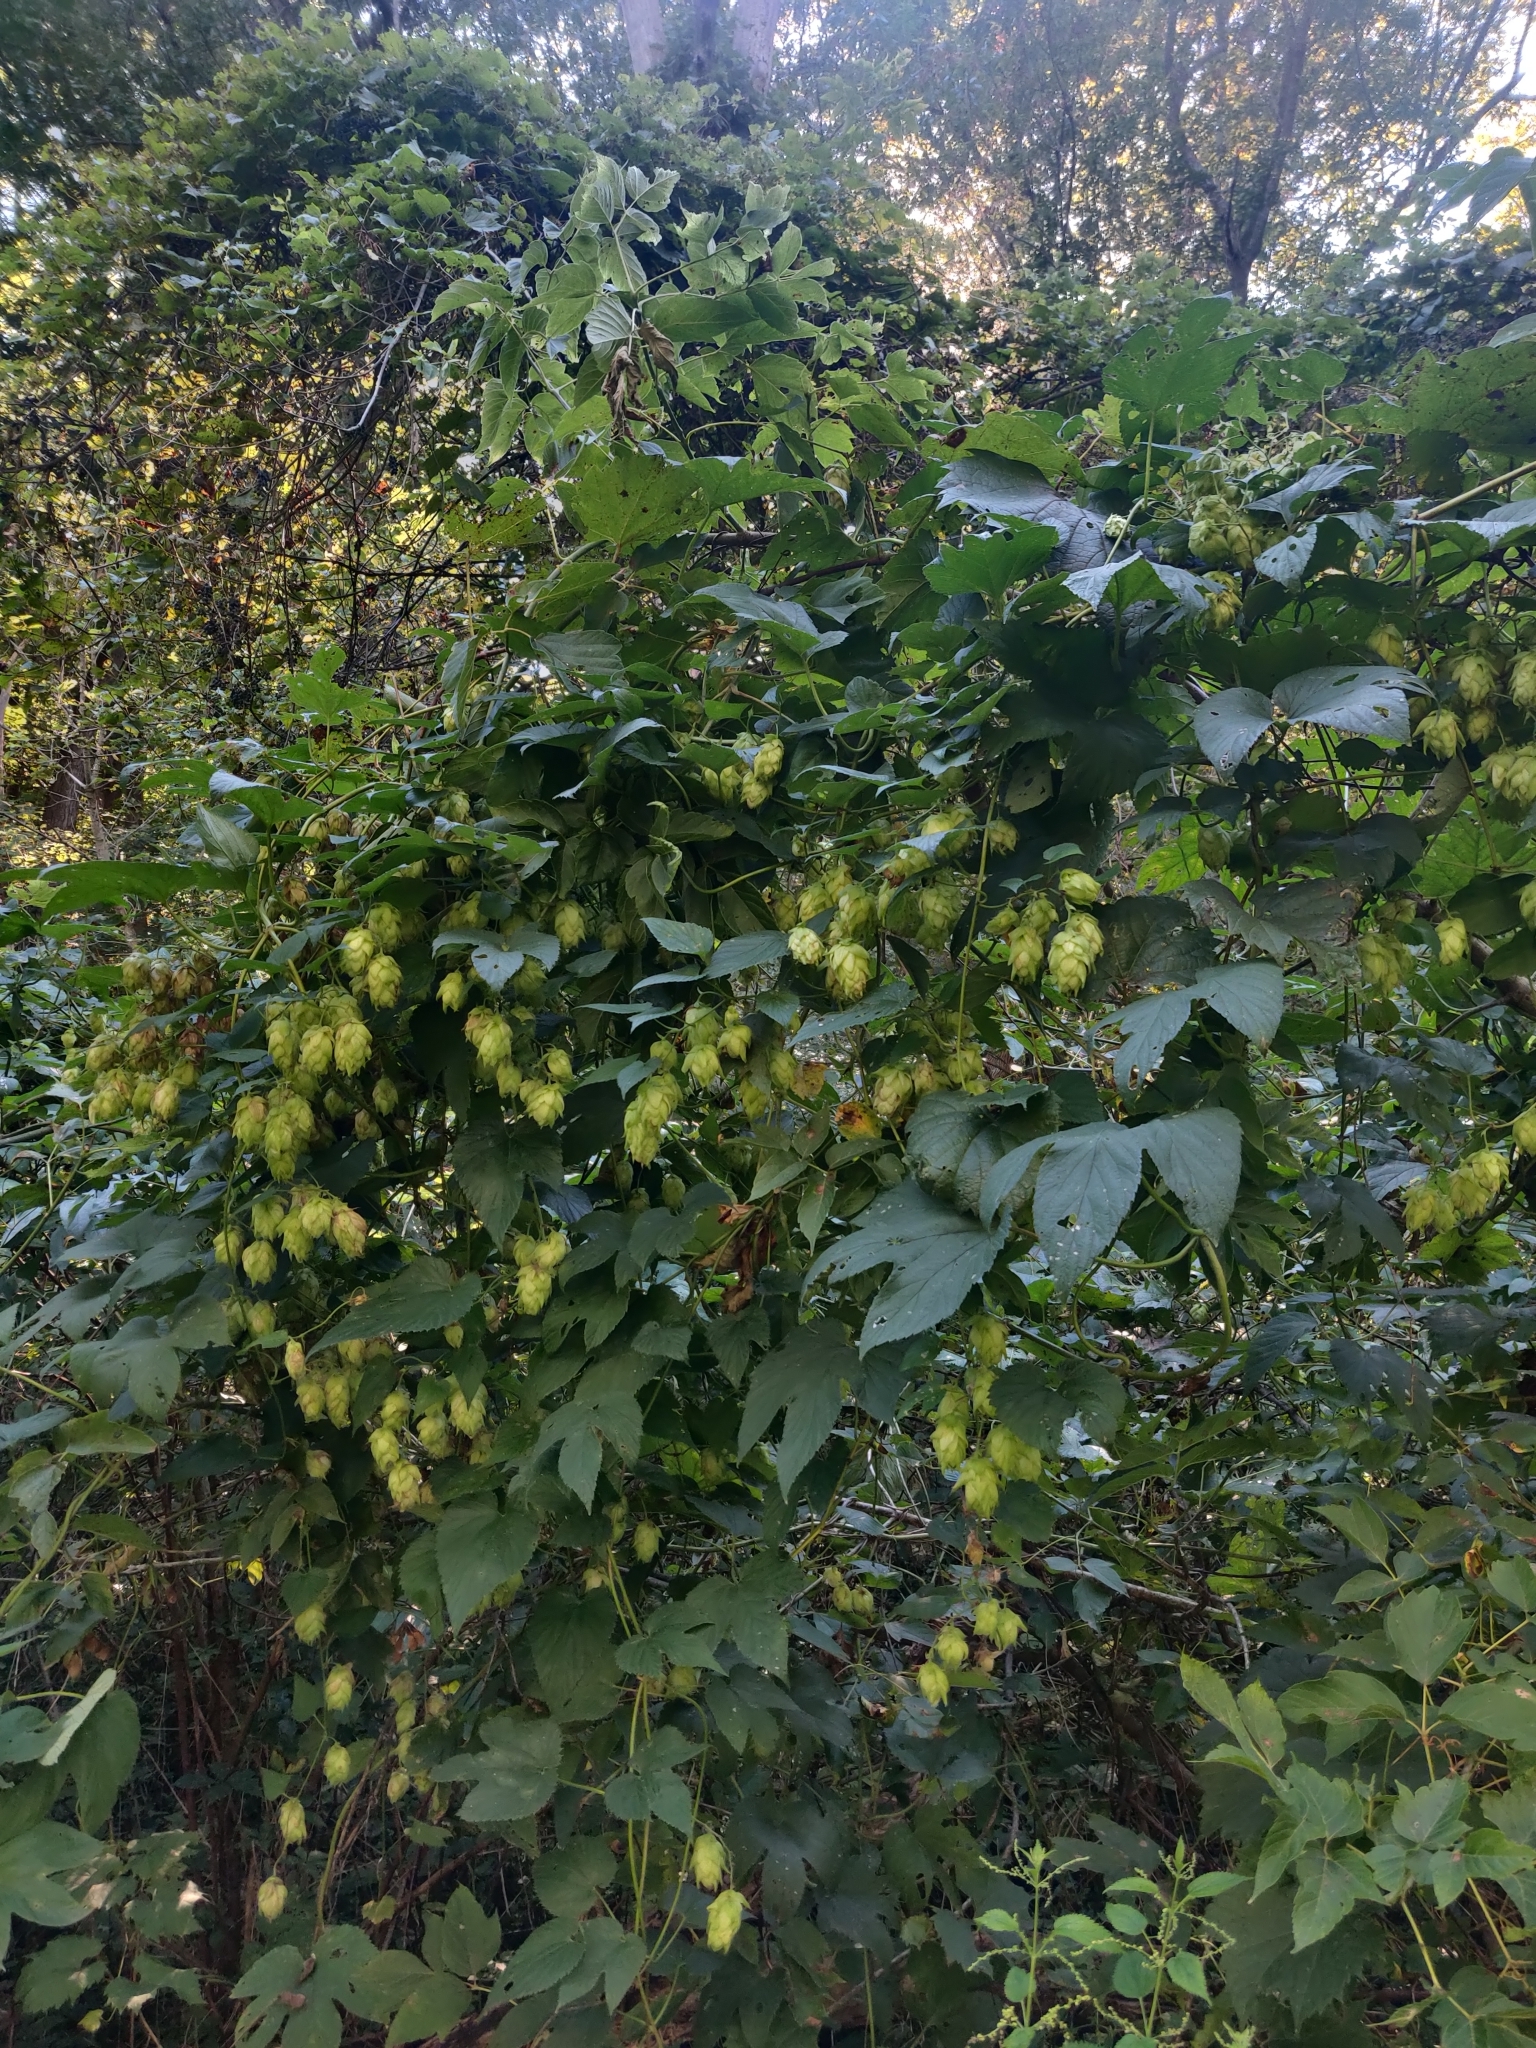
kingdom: Plantae
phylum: Tracheophyta
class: Magnoliopsida
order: Rosales
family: Cannabaceae
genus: Humulus
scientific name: Humulus lupulus
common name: Hop
